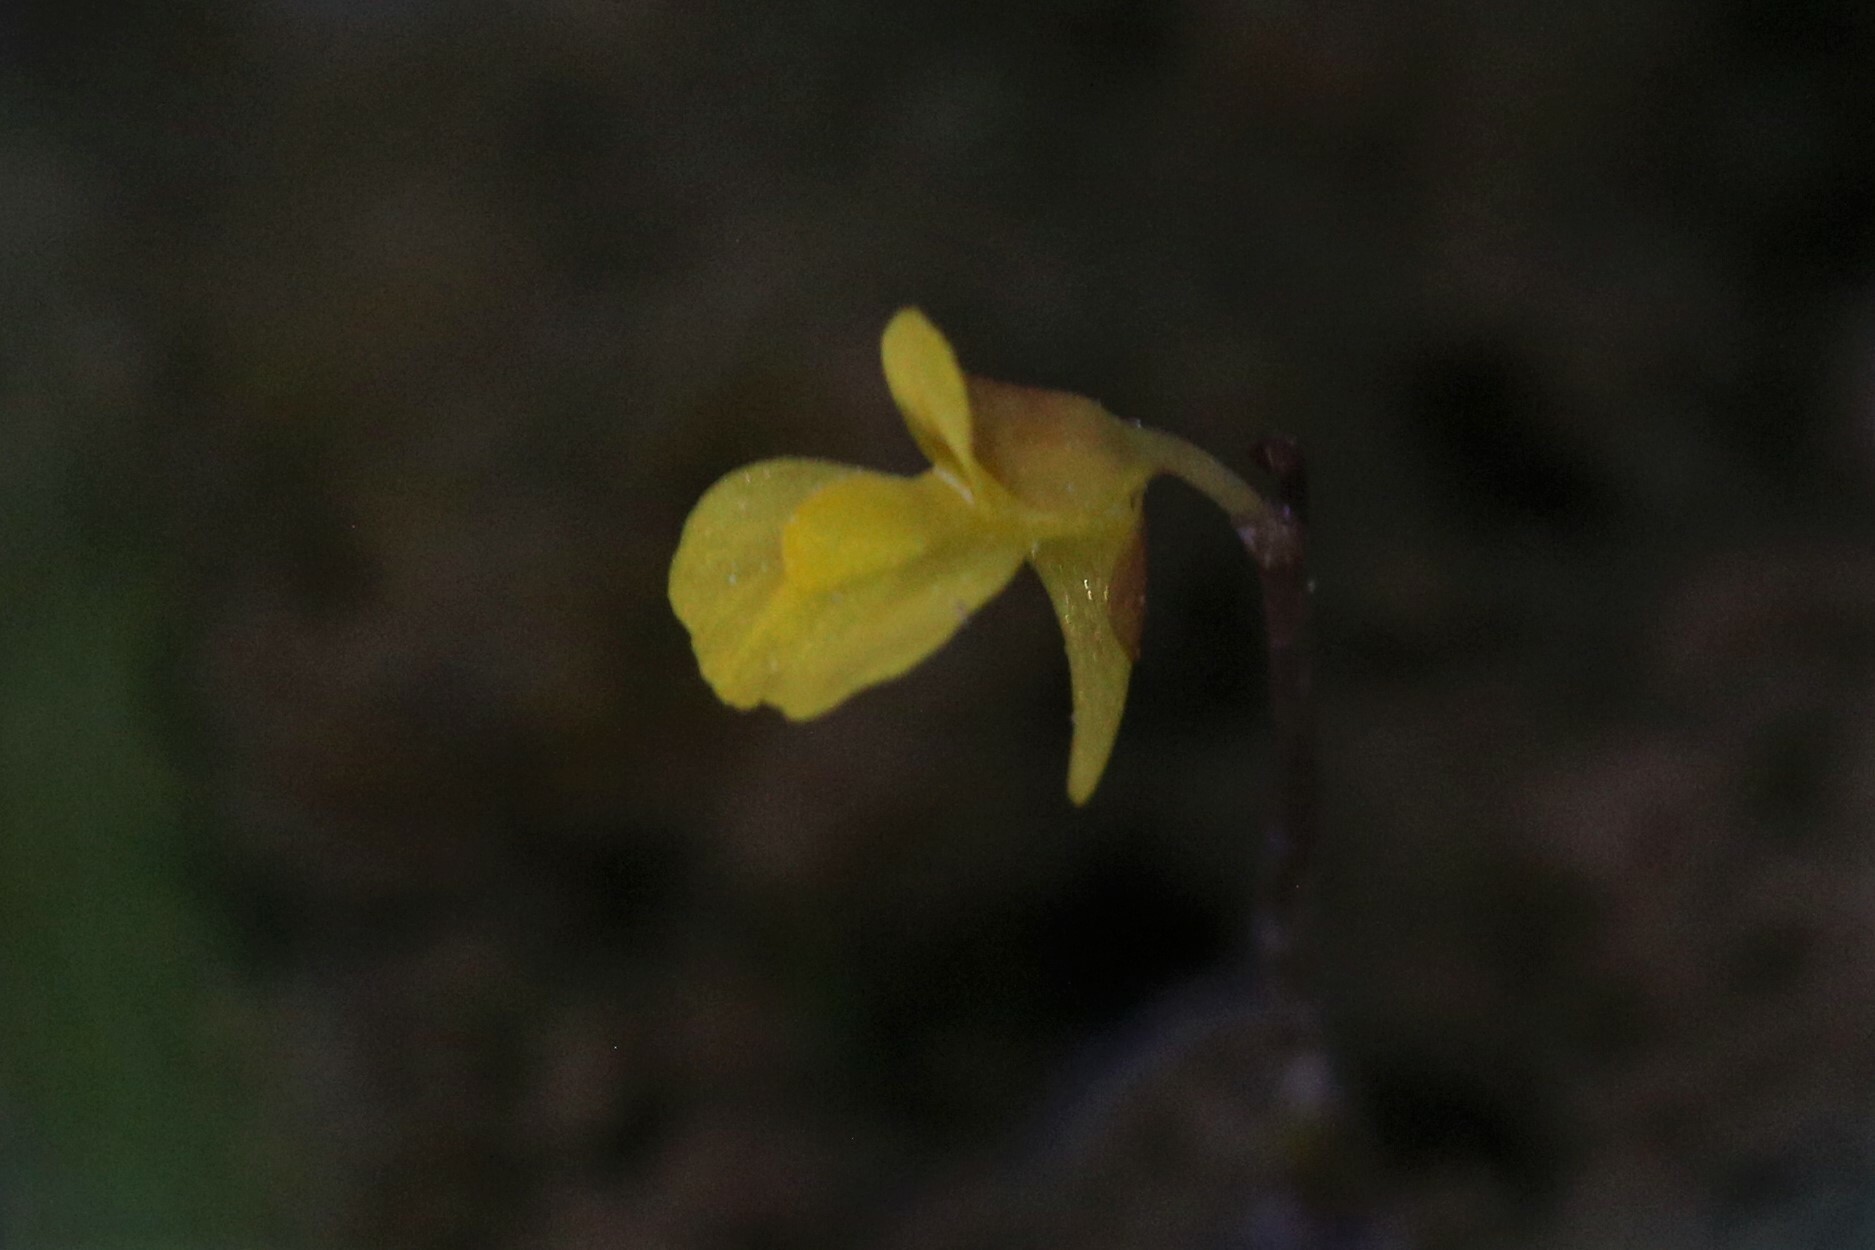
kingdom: Plantae
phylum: Tracheophyta
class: Magnoliopsida
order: Lamiales
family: Lentibulariaceae
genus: Utricularia
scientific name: Utricularia bifida
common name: Bifid bladderwort
